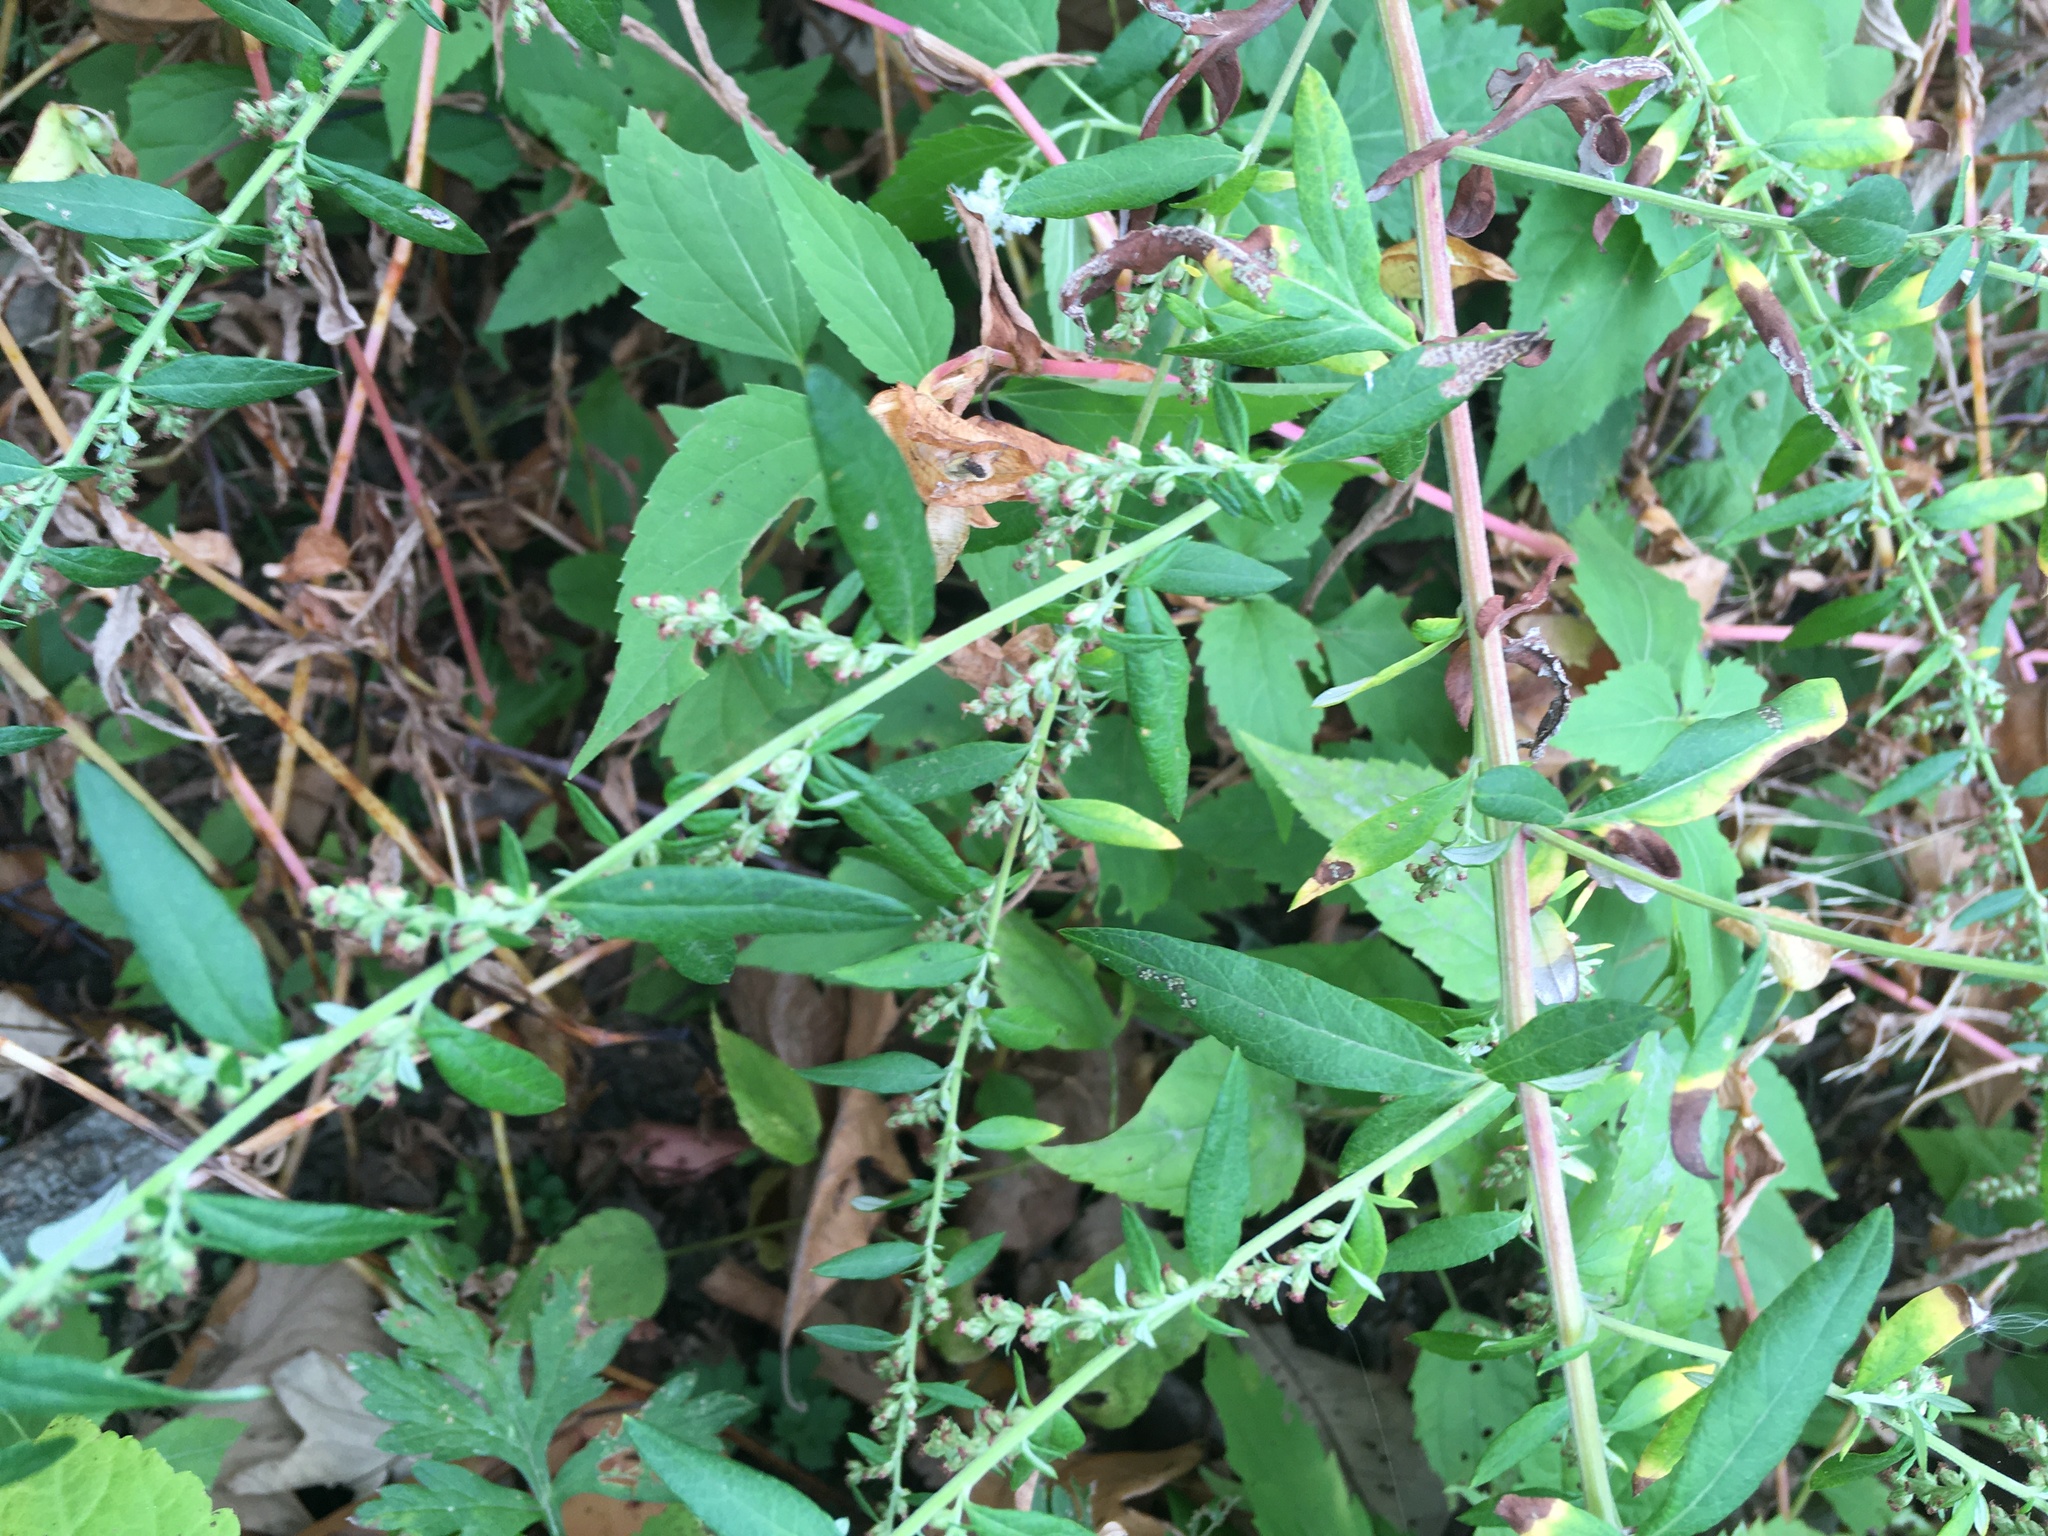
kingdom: Plantae
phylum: Tracheophyta
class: Magnoliopsida
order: Asterales
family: Asteraceae
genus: Artemisia
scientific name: Artemisia vulgaris
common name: Mugwort
